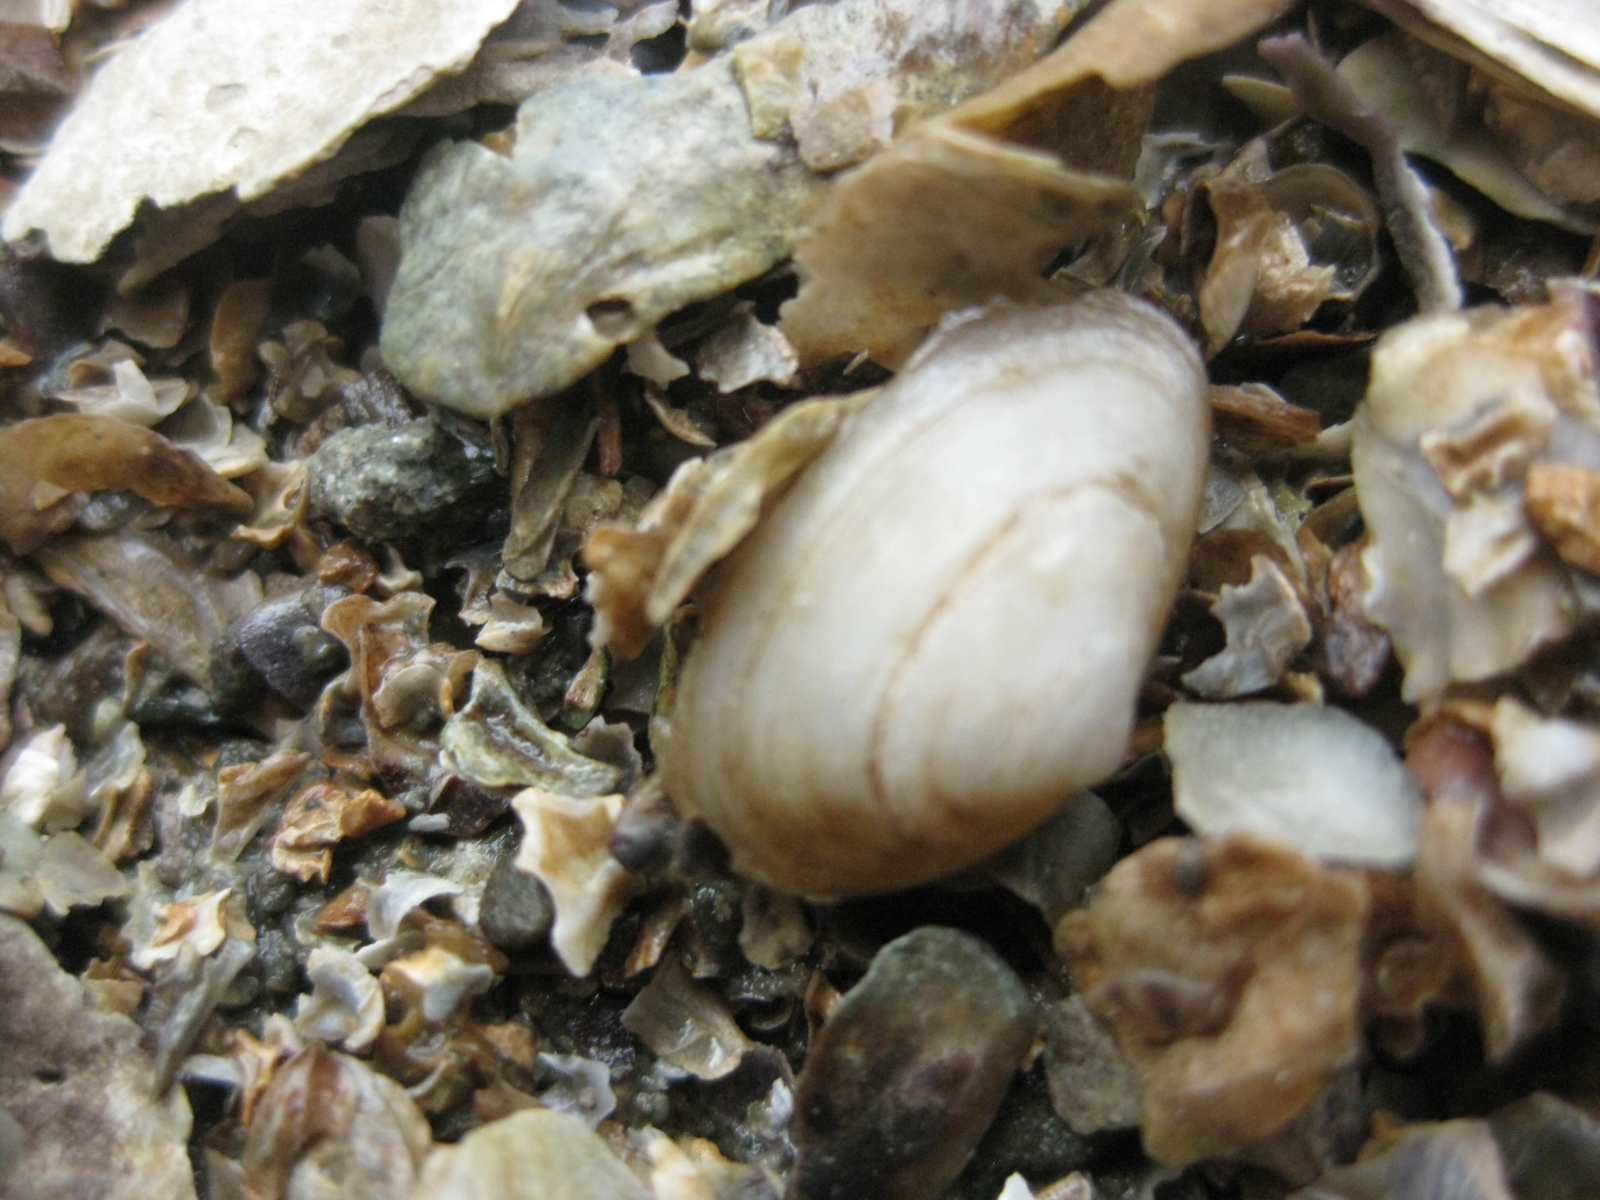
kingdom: Animalia
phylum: Mollusca
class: Bivalvia
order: Venerida
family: Mesodesmatidae
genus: Paphies
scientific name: Paphies australis
